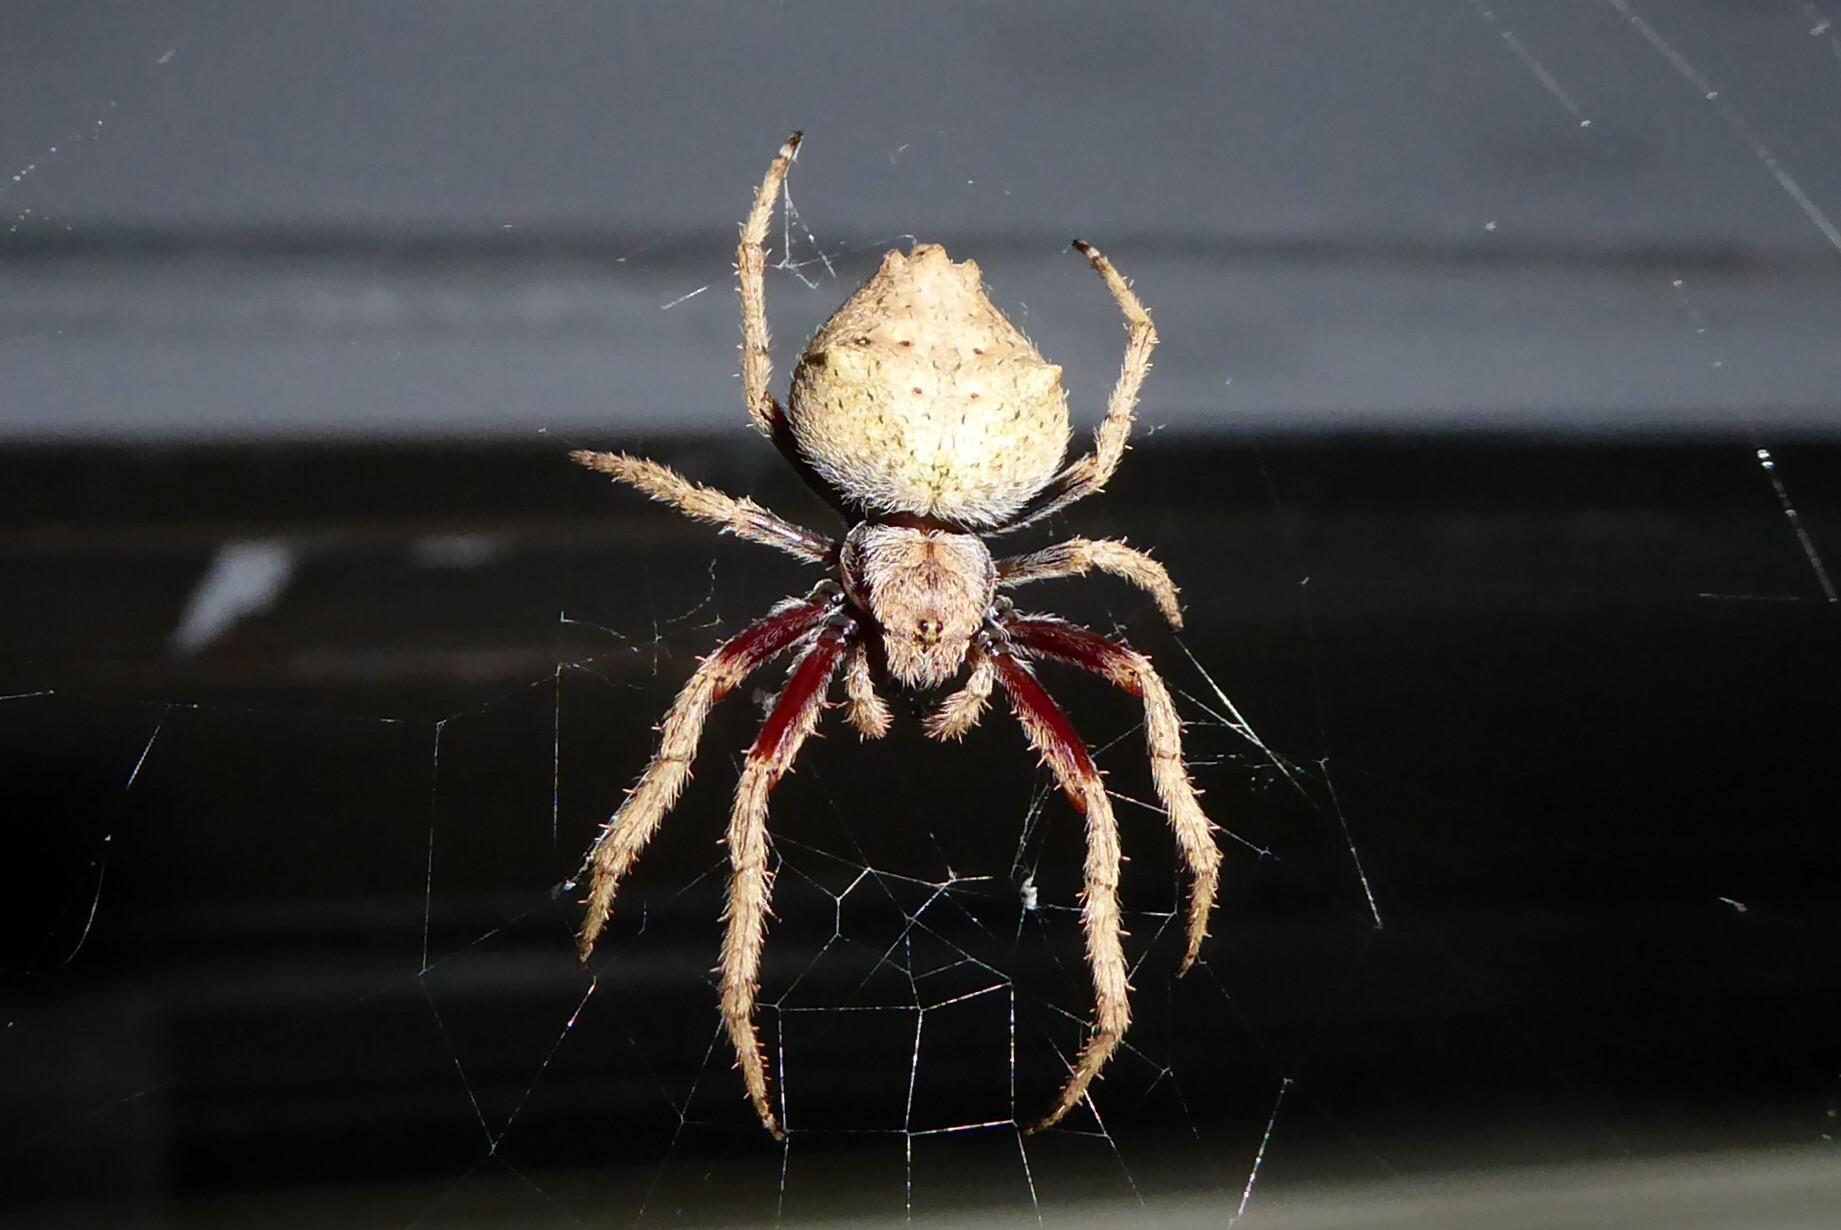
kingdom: Animalia
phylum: Arthropoda
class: Arachnida
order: Araneae
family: Araneidae
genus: Eriophora
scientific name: Eriophora pustulosa
